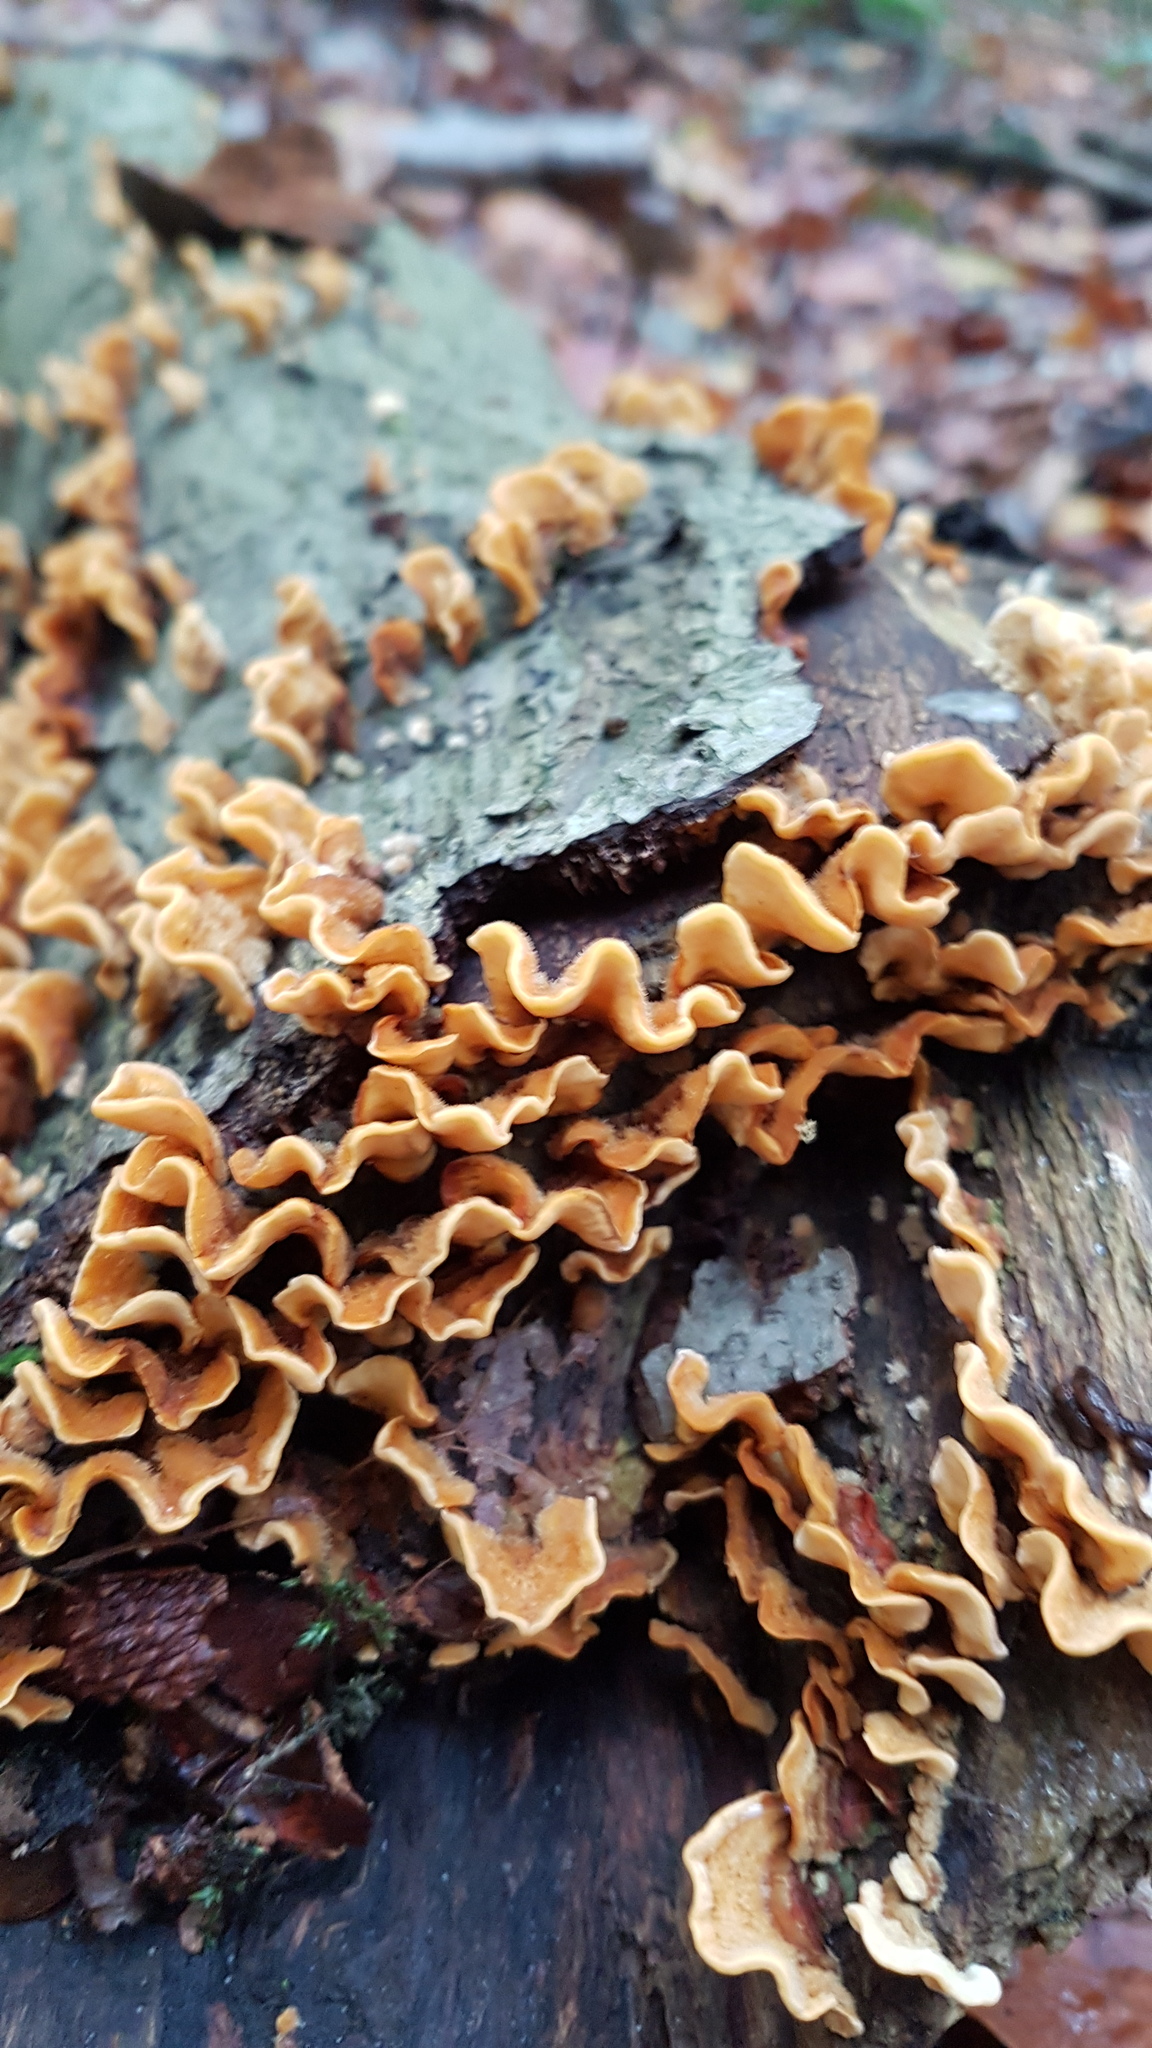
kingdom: Fungi
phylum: Basidiomycota
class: Agaricomycetes
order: Russulales
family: Stereaceae
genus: Stereum
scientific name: Stereum hirsutum
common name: Hairy curtain crust
